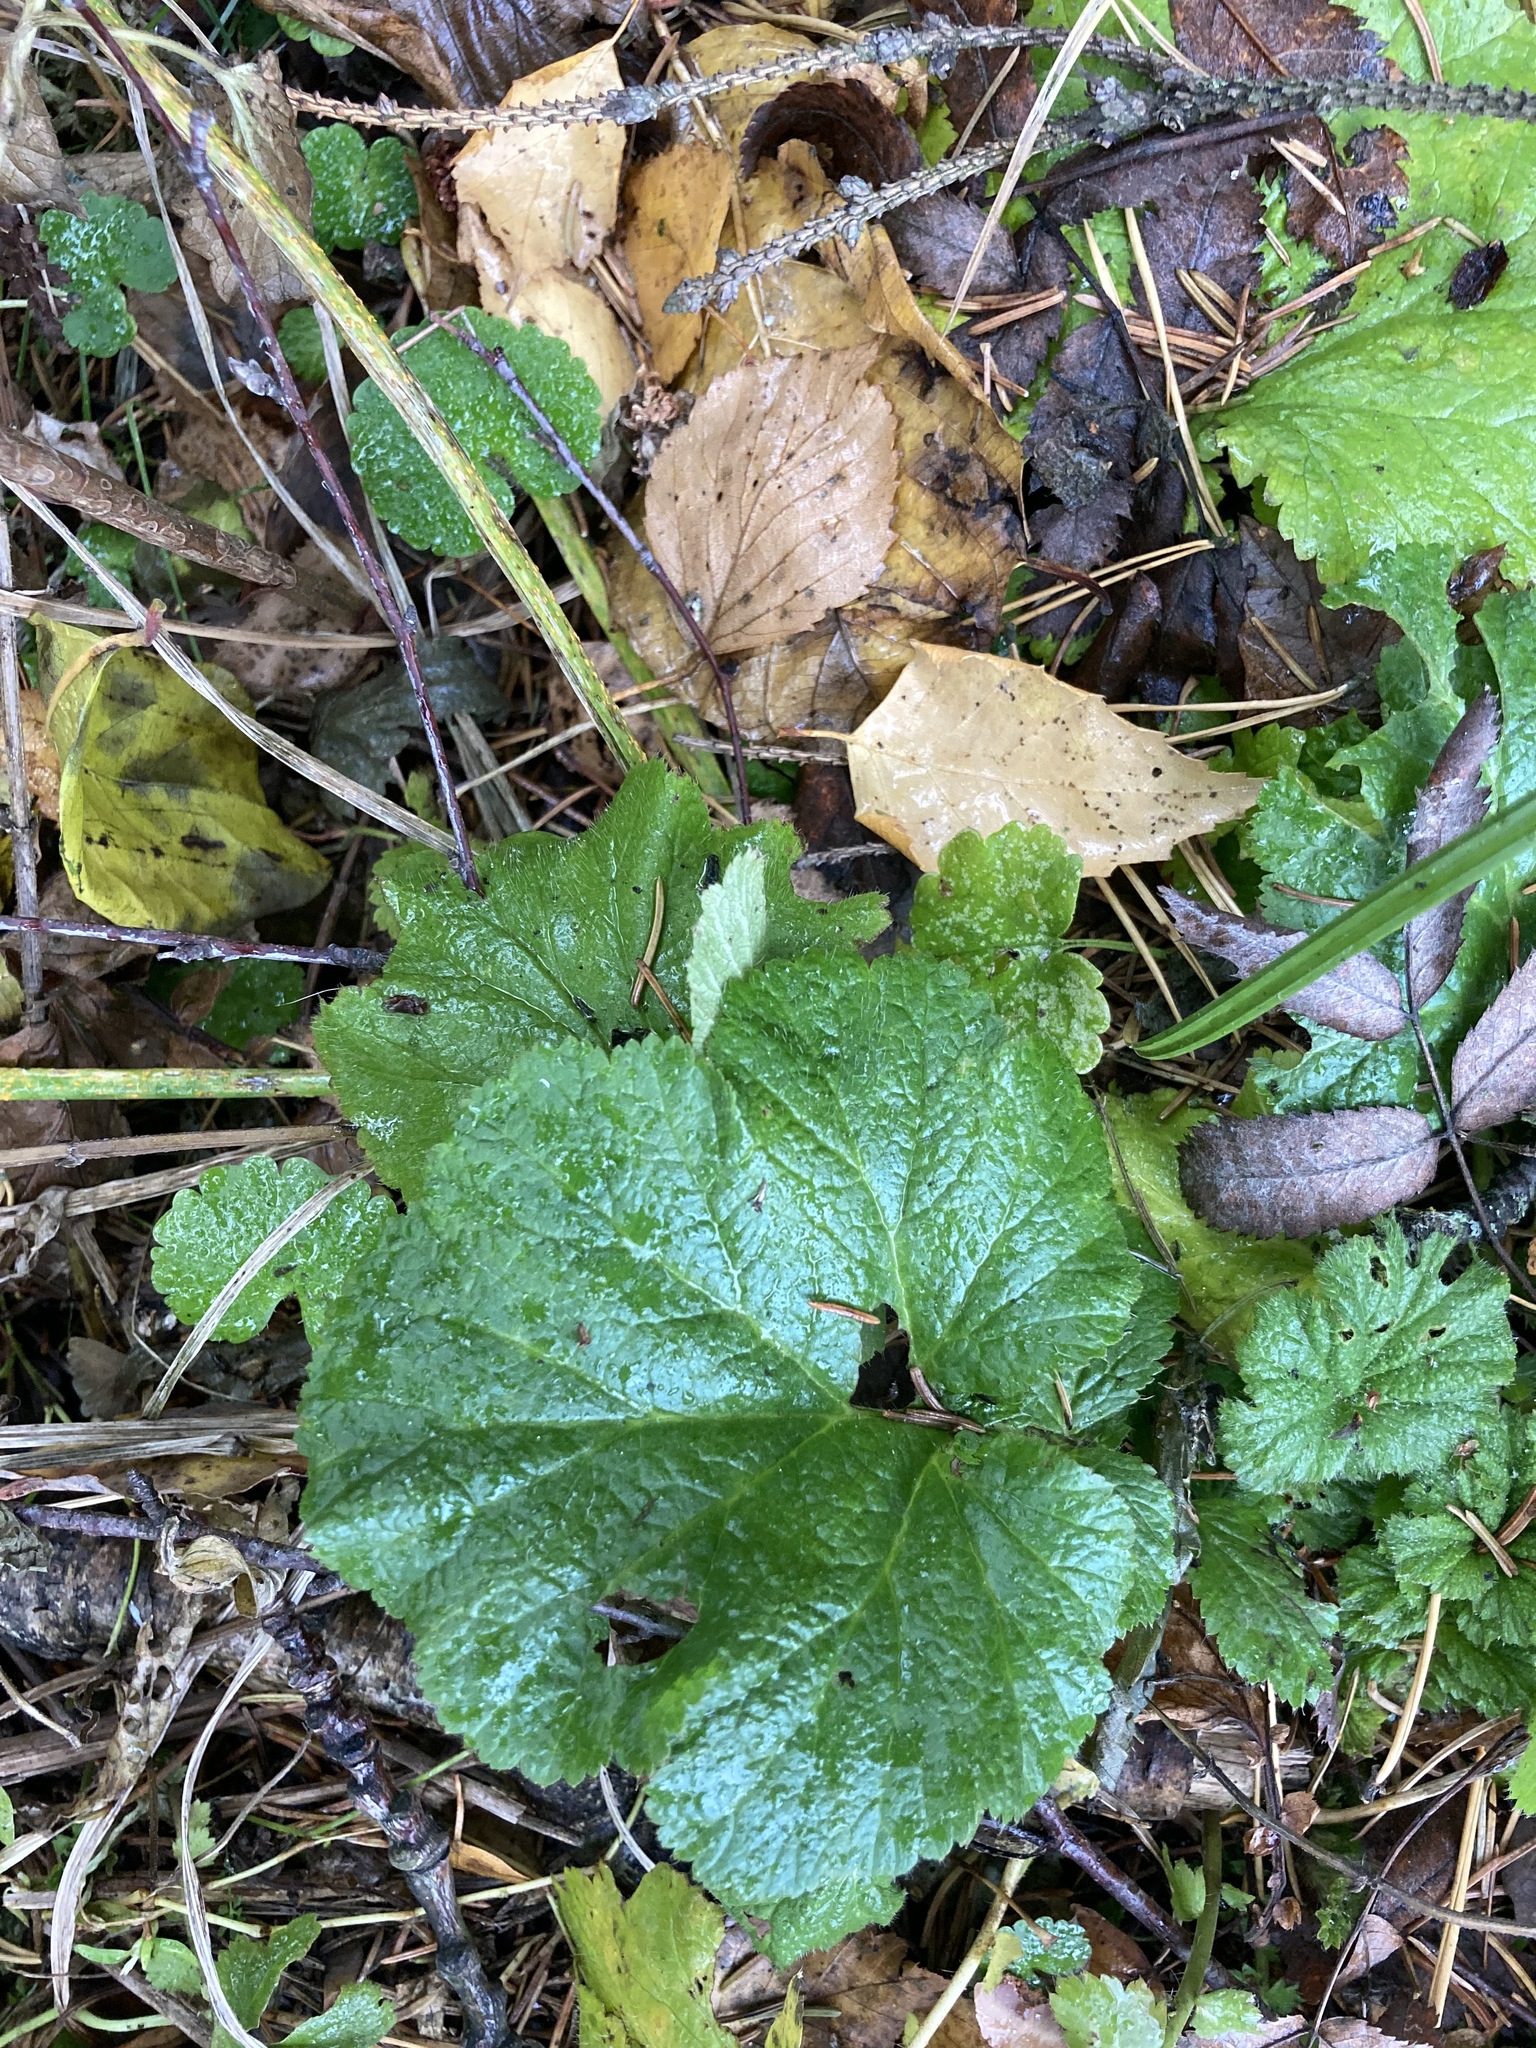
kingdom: Plantae
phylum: Tracheophyta
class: Magnoliopsida
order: Rosales
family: Rosaceae
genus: Geum
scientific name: Geum
